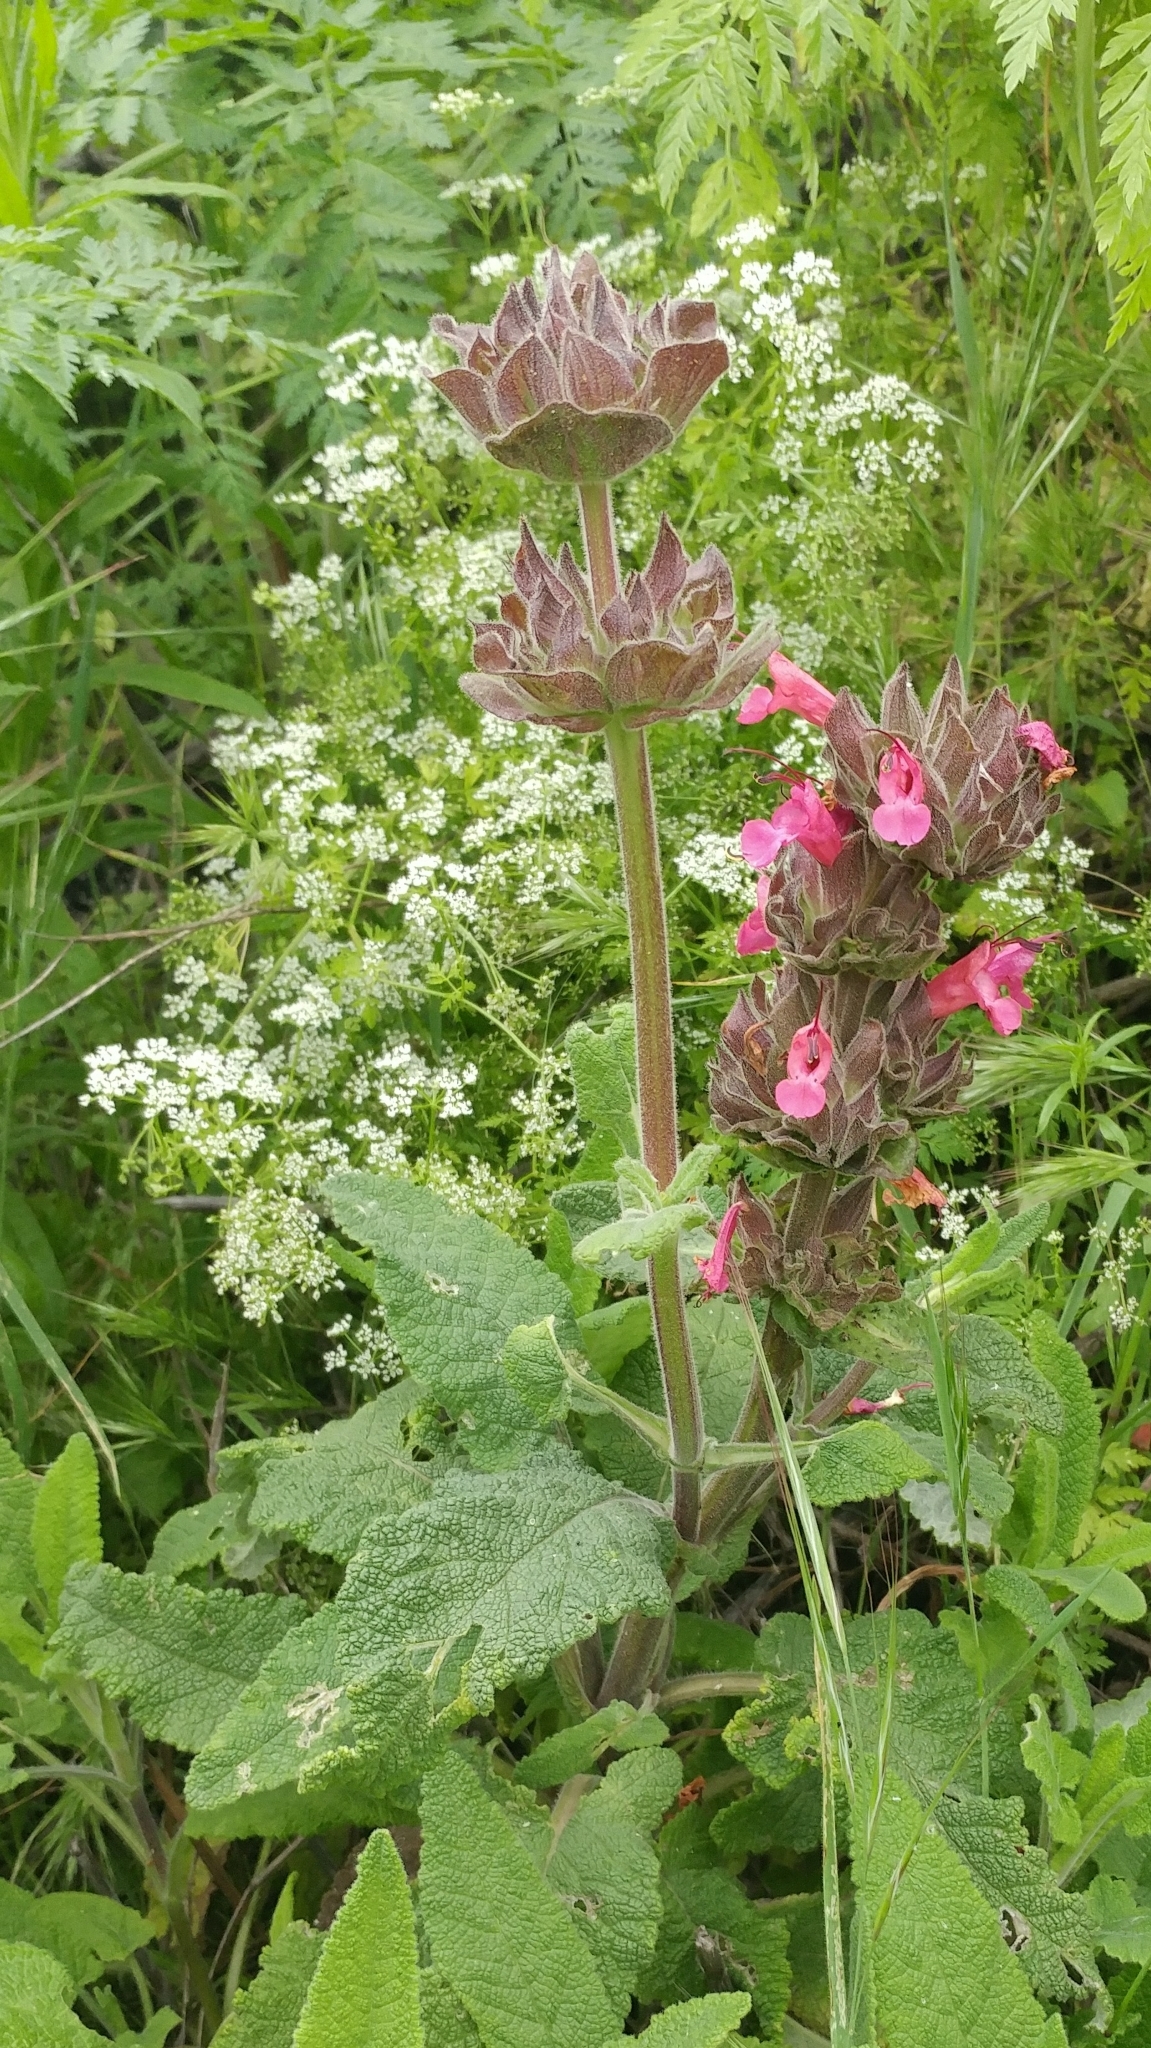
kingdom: Plantae
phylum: Tracheophyta
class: Magnoliopsida
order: Lamiales
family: Lamiaceae
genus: Salvia
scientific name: Salvia spathacea
